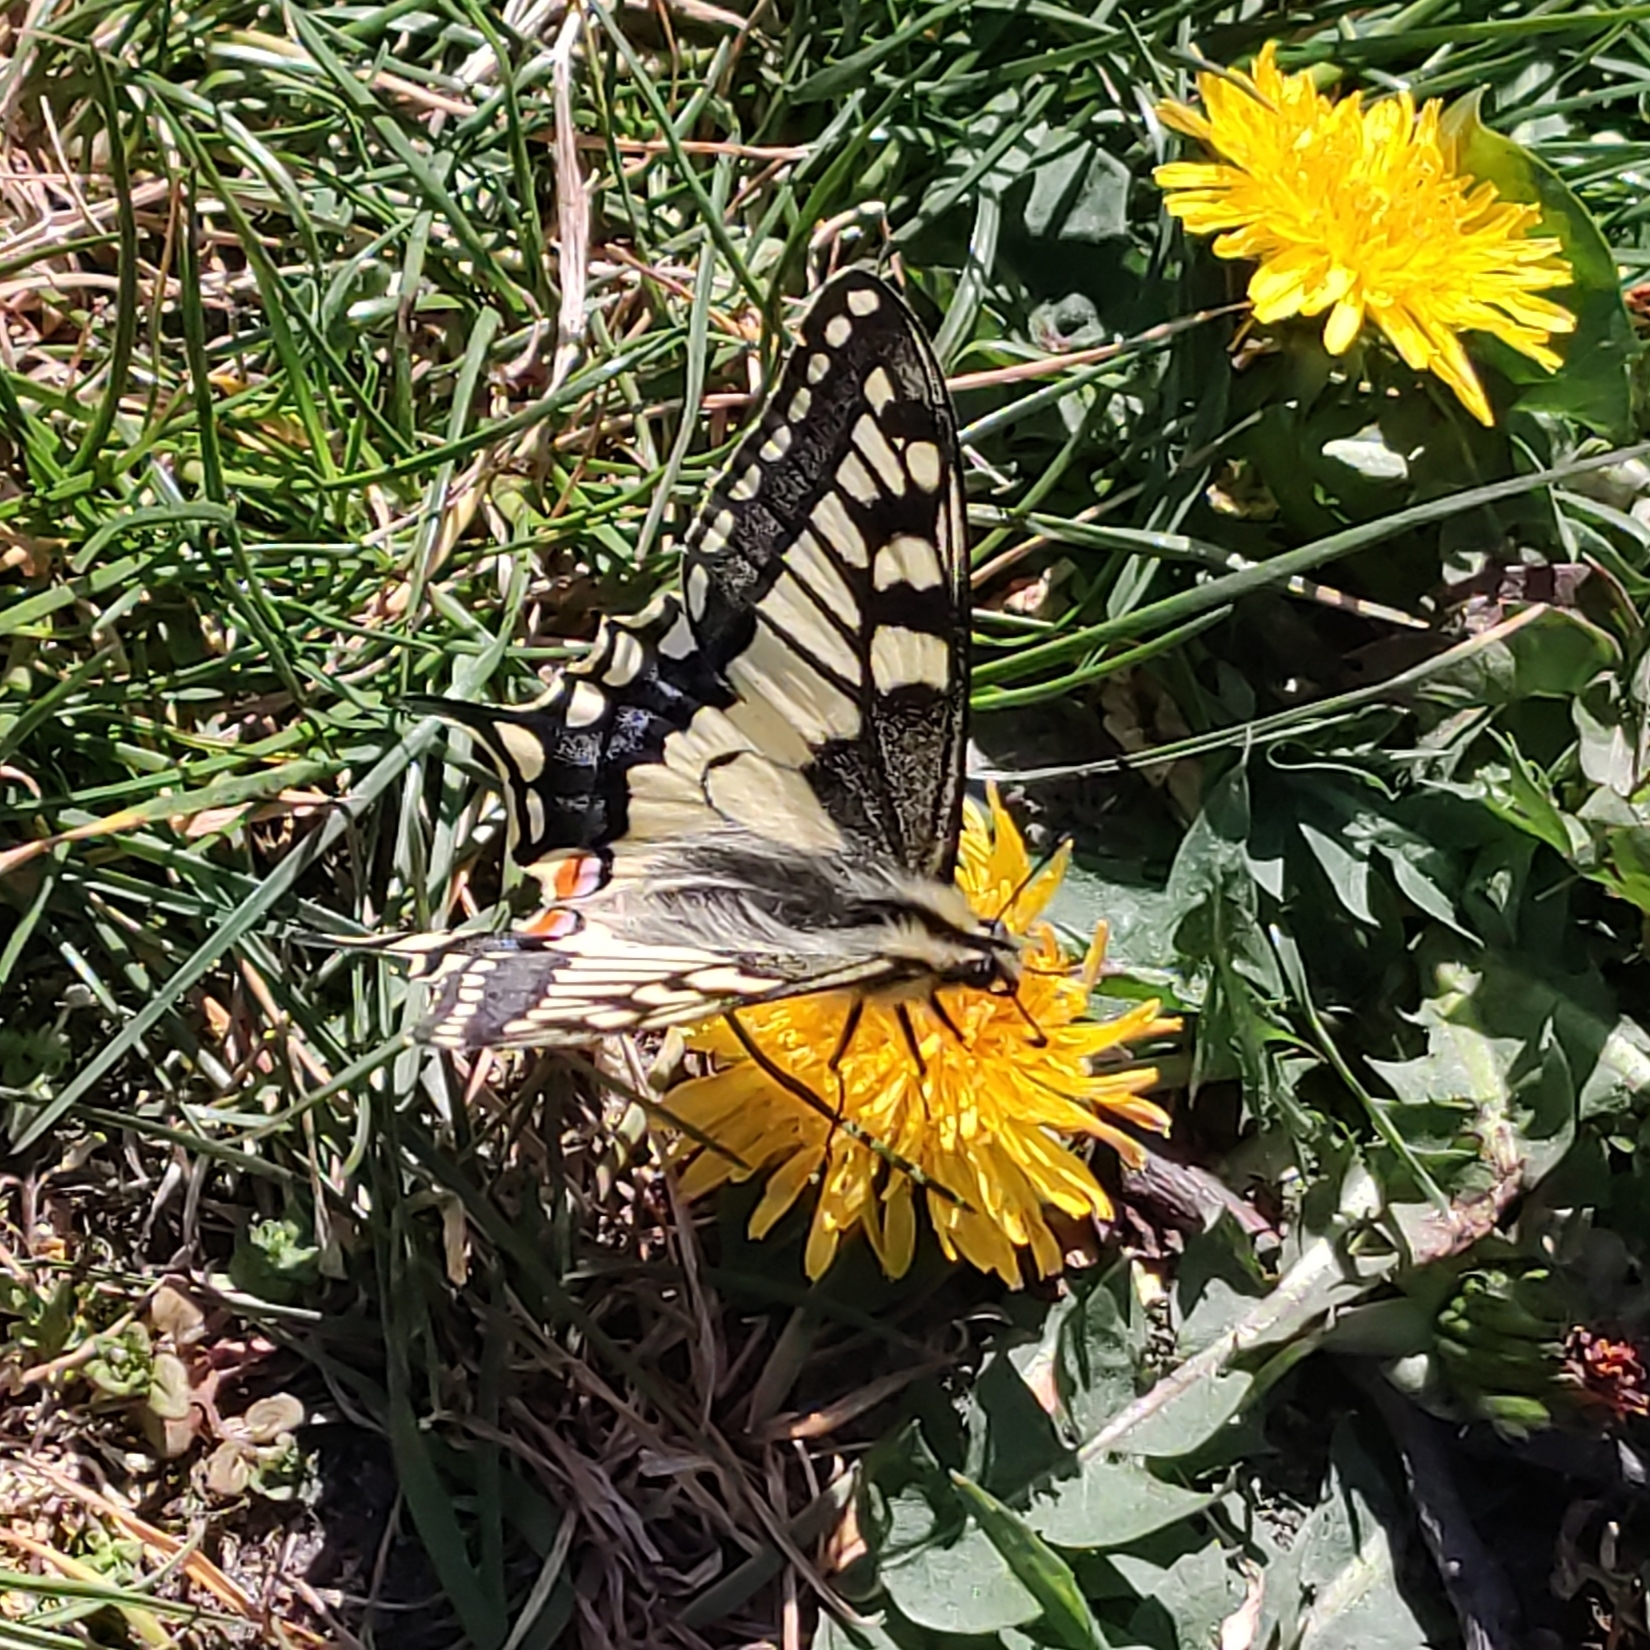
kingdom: Animalia
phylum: Arthropoda
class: Insecta
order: Lepidoptera
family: Papilionidae
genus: Papilio
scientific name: Papilio machaon
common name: Swallowtail
